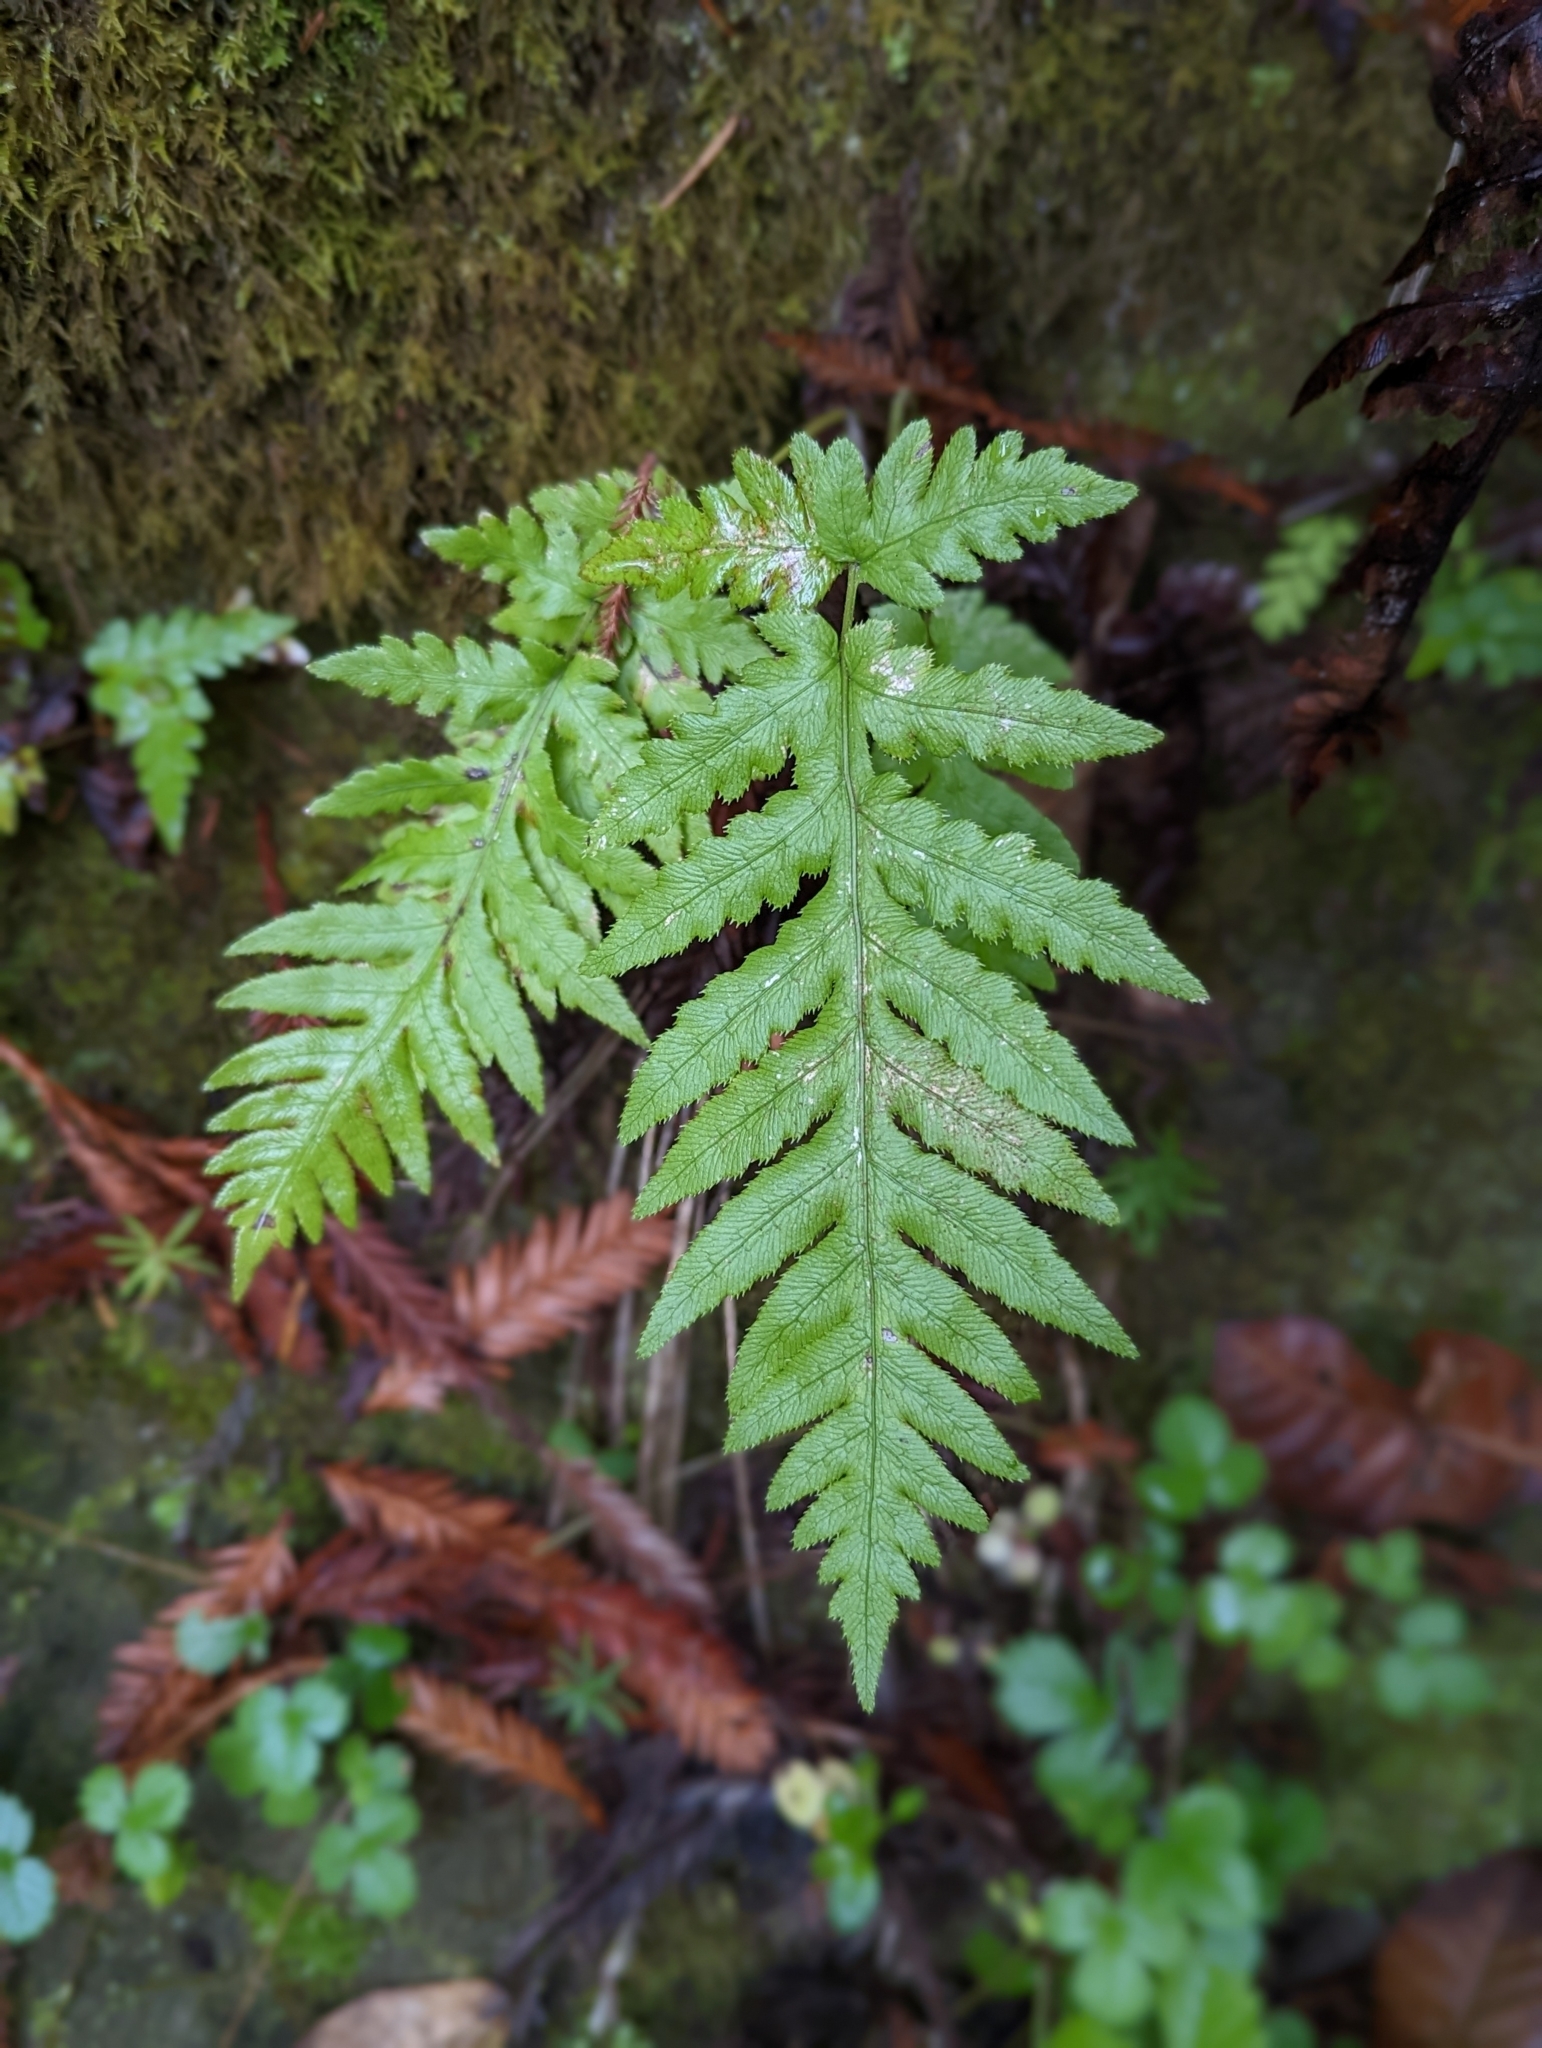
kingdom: Plantae
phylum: Tracheophyta
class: Polypodiopsida
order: Polypodiales
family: Blechnaceae
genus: Woodwardia
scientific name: Woodwardia fimbriata
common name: Giant chain fern
